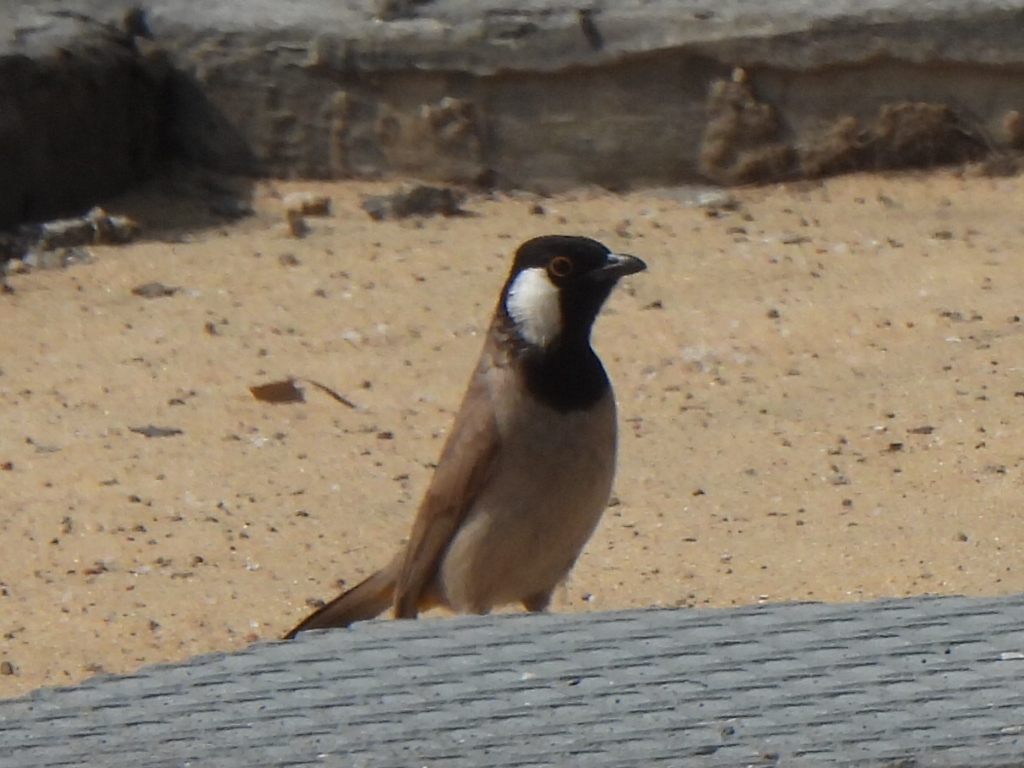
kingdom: Animalia
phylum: Chordata
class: Aves
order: Passeriformes
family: Pycnonotidae
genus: Pycnonotus
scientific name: Pycnonotus leucotis
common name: White-eared bulbul
